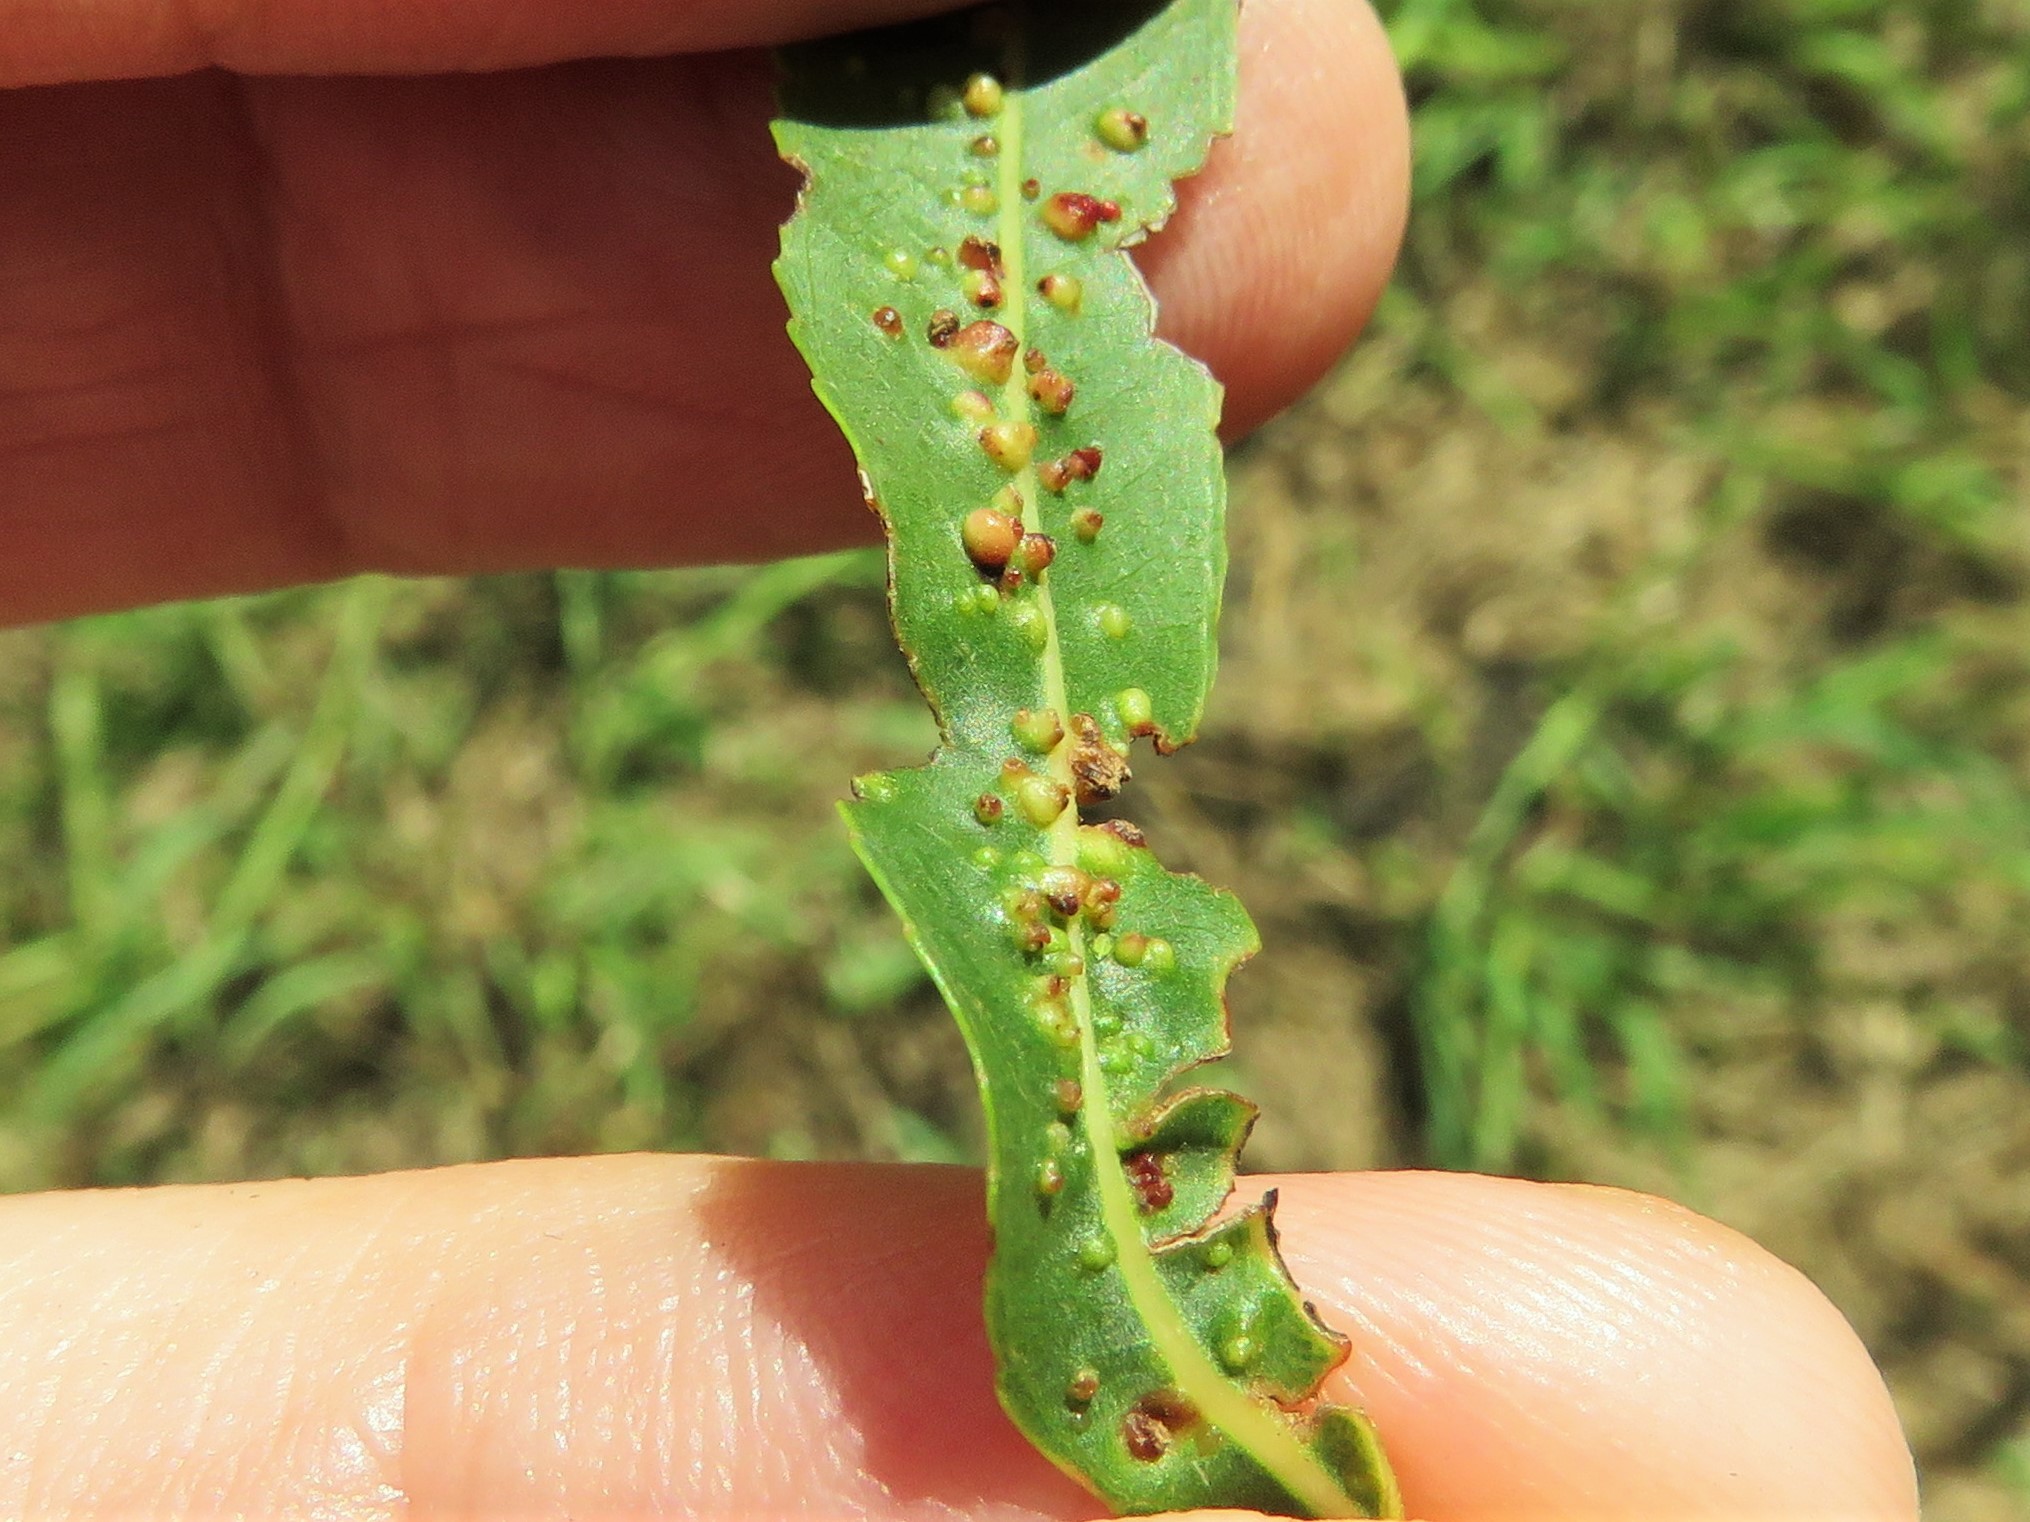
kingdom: Animalia
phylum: Arthropoda
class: Arachnida
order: Trombidiformes
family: Eriophyidae
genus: Aculus
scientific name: Aculus tetanothrix
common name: Willow bead gall mite
